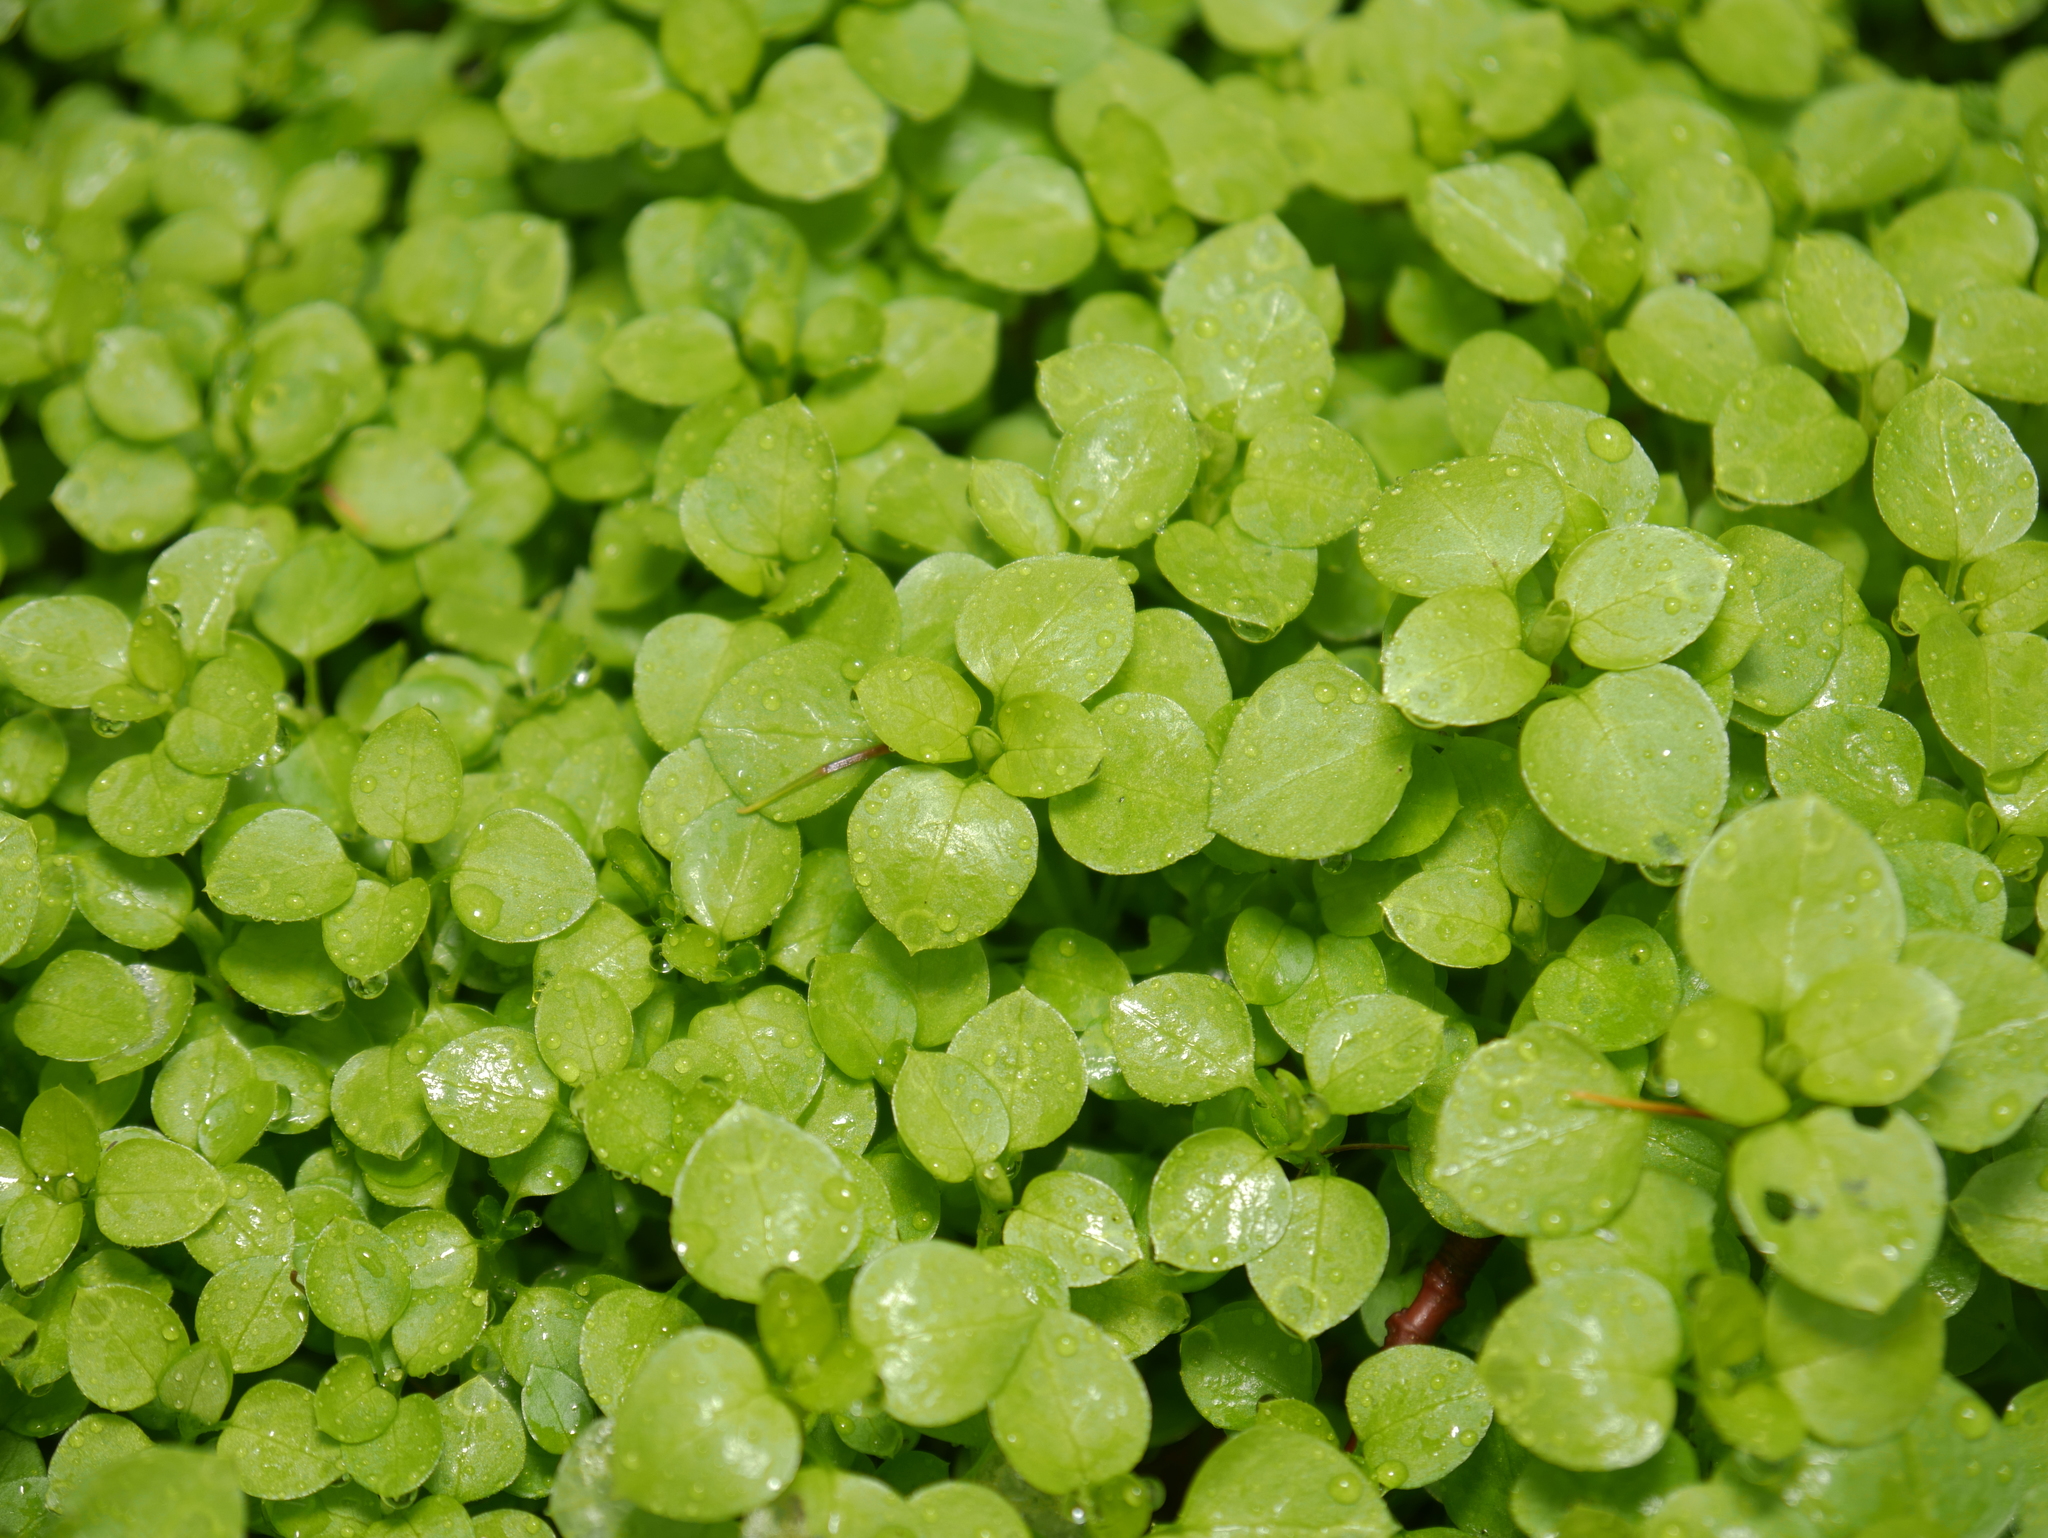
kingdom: Plantae
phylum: Tracheophyta
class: Magnoliopsida
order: Caryophyllales
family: Caryophyllaceae
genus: Stellaria
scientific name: Stellaria media
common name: Common chickweed
